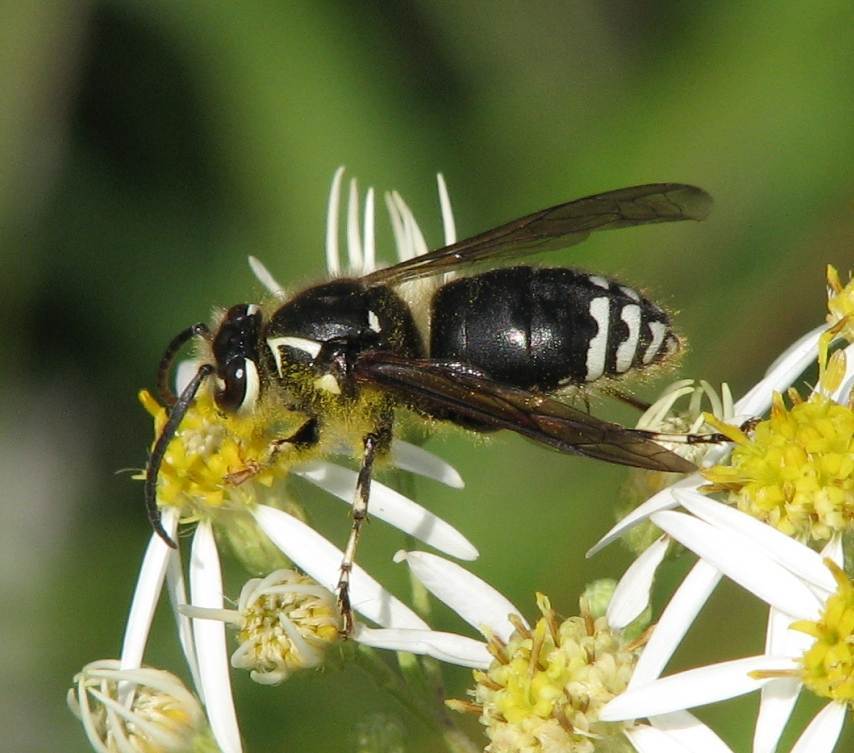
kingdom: Animalia
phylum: Arthropoda
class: Insecta
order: Hymenoptera
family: Vespidae
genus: Dolichovespula
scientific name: Dolichovespula maculata
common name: Bald-faced hornet
